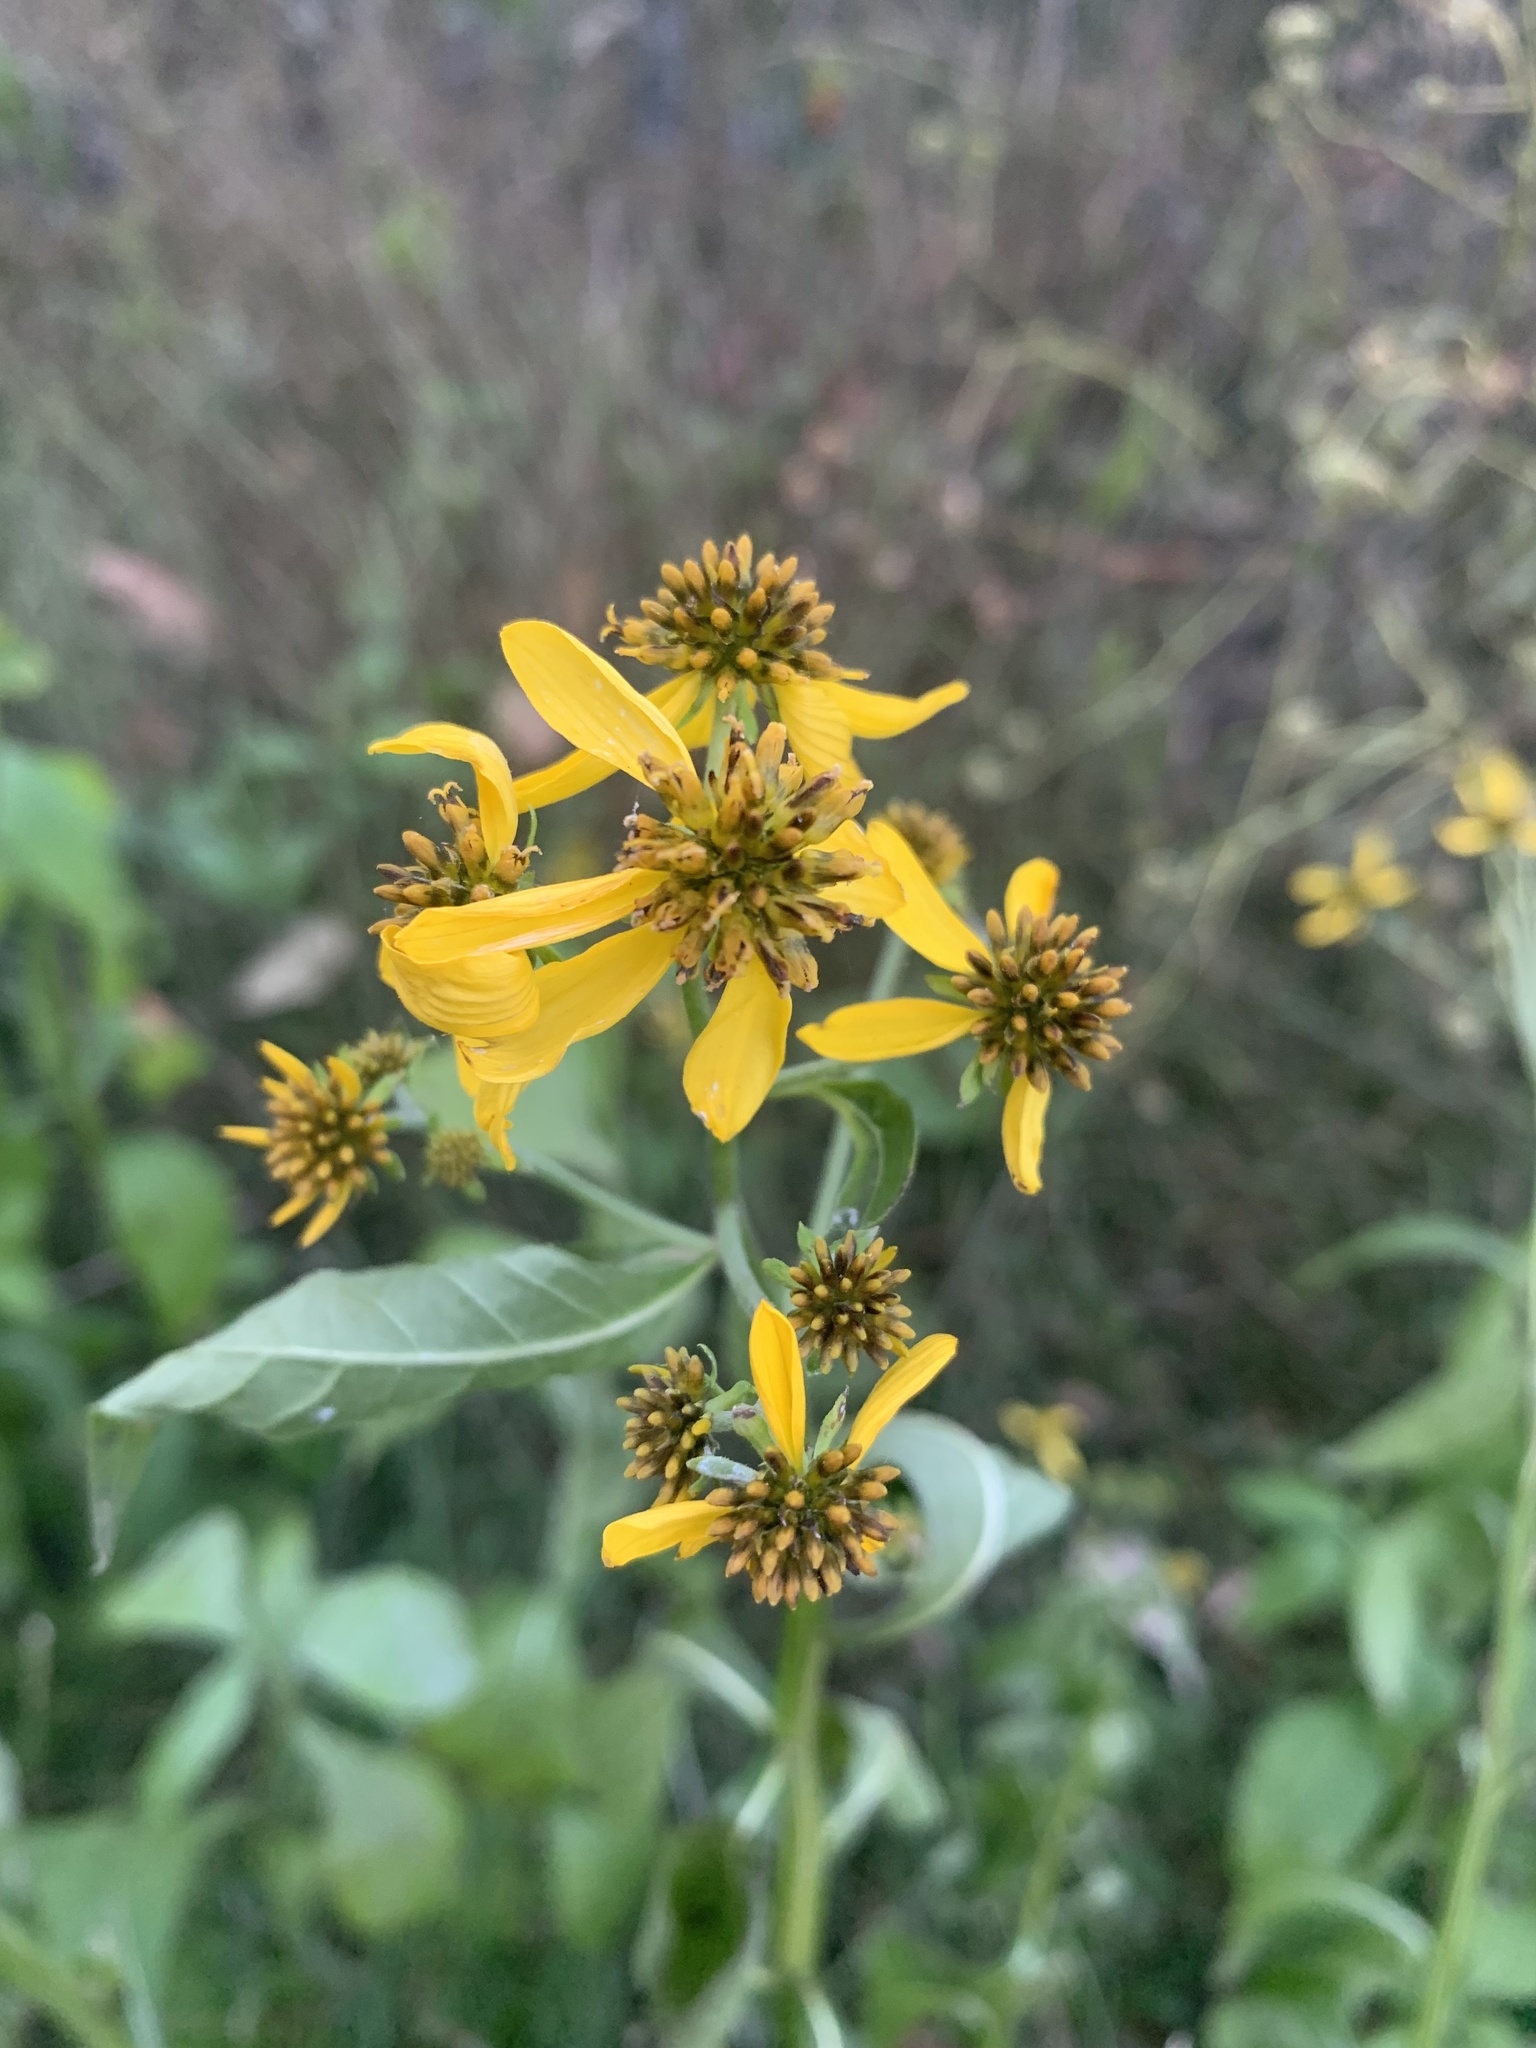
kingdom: Plantae
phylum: Tracheophyta
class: Magnoliopsida
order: Asterales
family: Asteraceae
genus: Verbesina
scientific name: Verbesina alternifolia
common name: Wingstem
